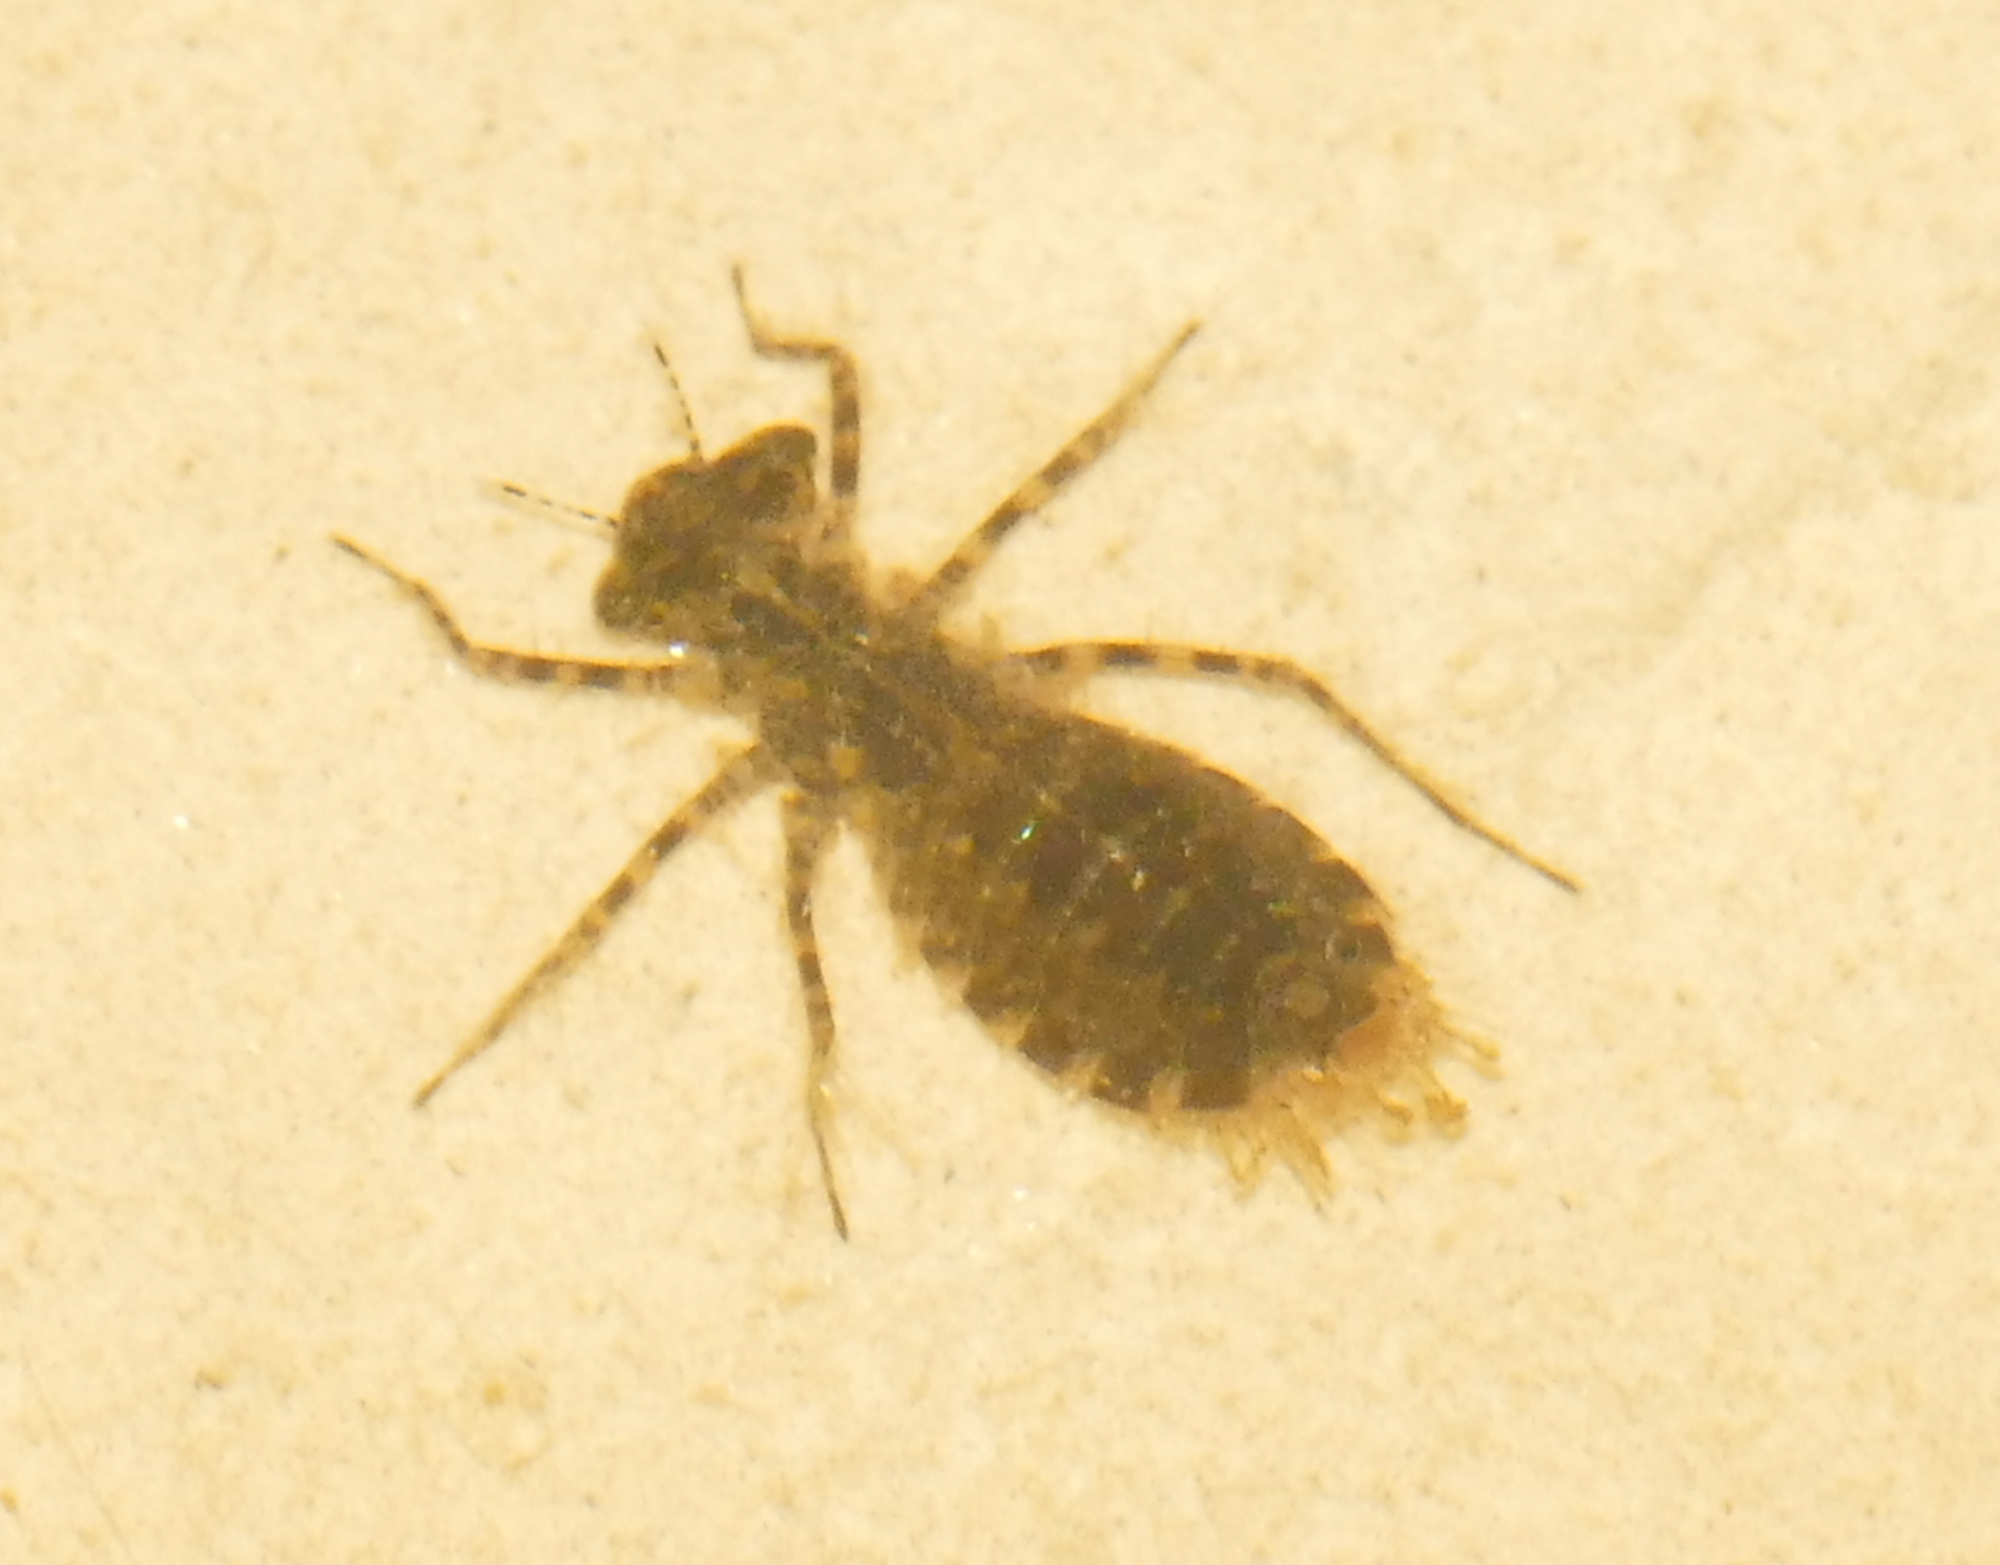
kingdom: Animalia
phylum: Arthropoda
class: Insecta
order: Odonata
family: Libellulidae
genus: Pachydiplax
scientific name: Pachydiplax longipennis
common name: Blue dasher
